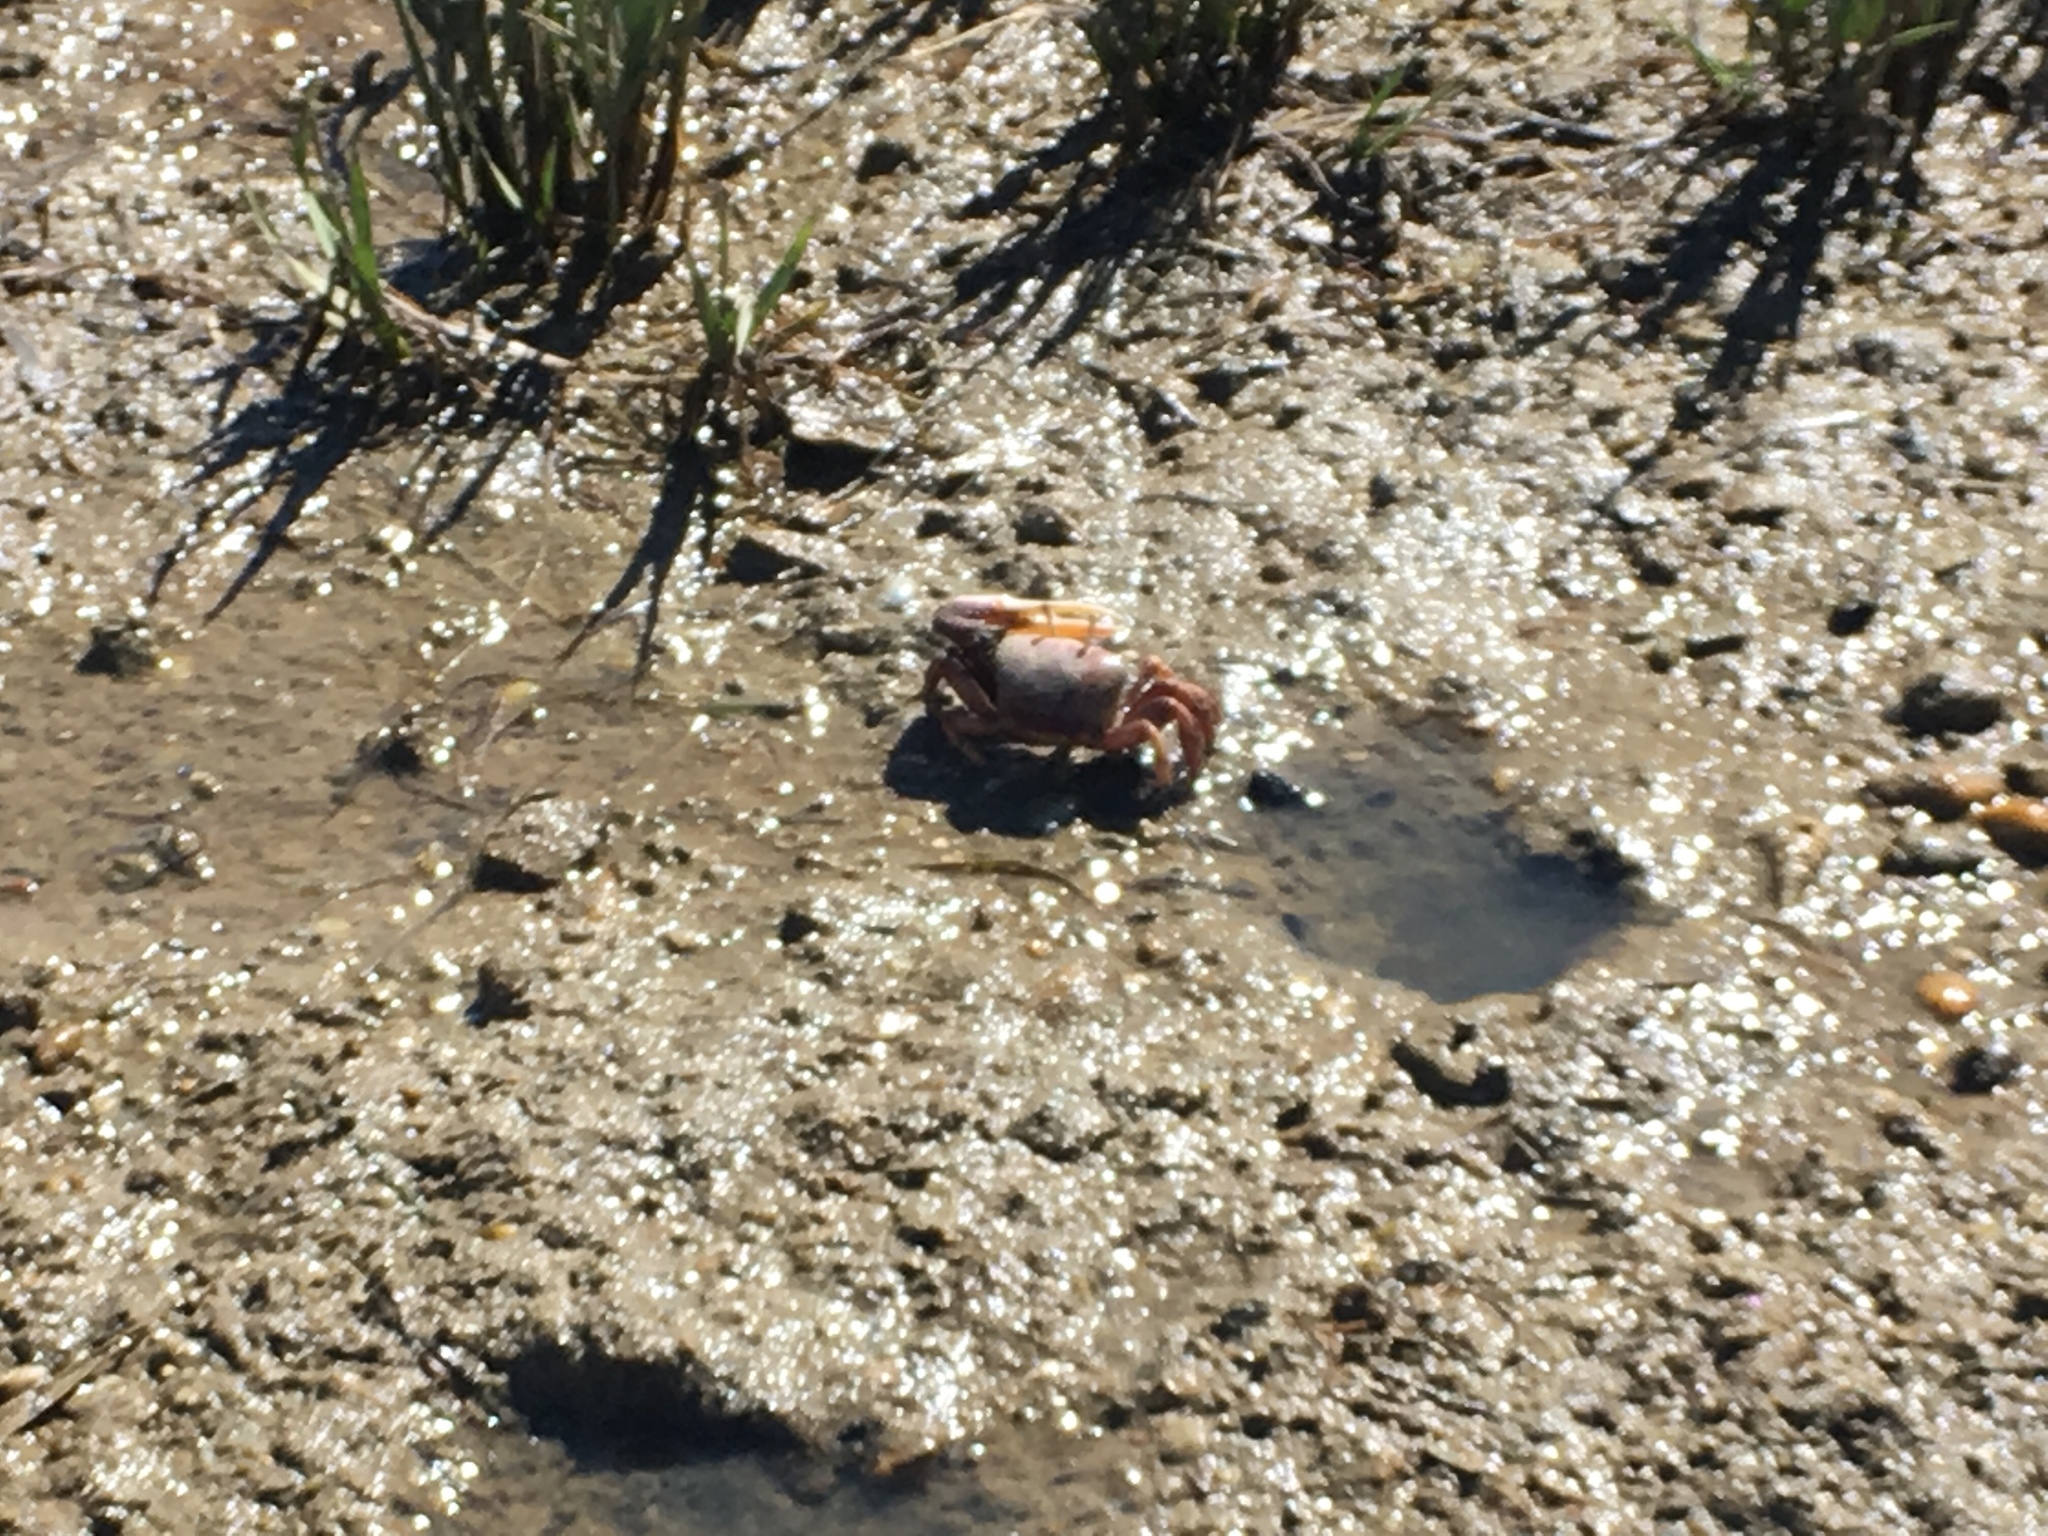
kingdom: Animalia
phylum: Arthropoda
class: Malacostraca
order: Decapoda
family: Ocypodidae
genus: Afruca
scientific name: Afruca tangeri
